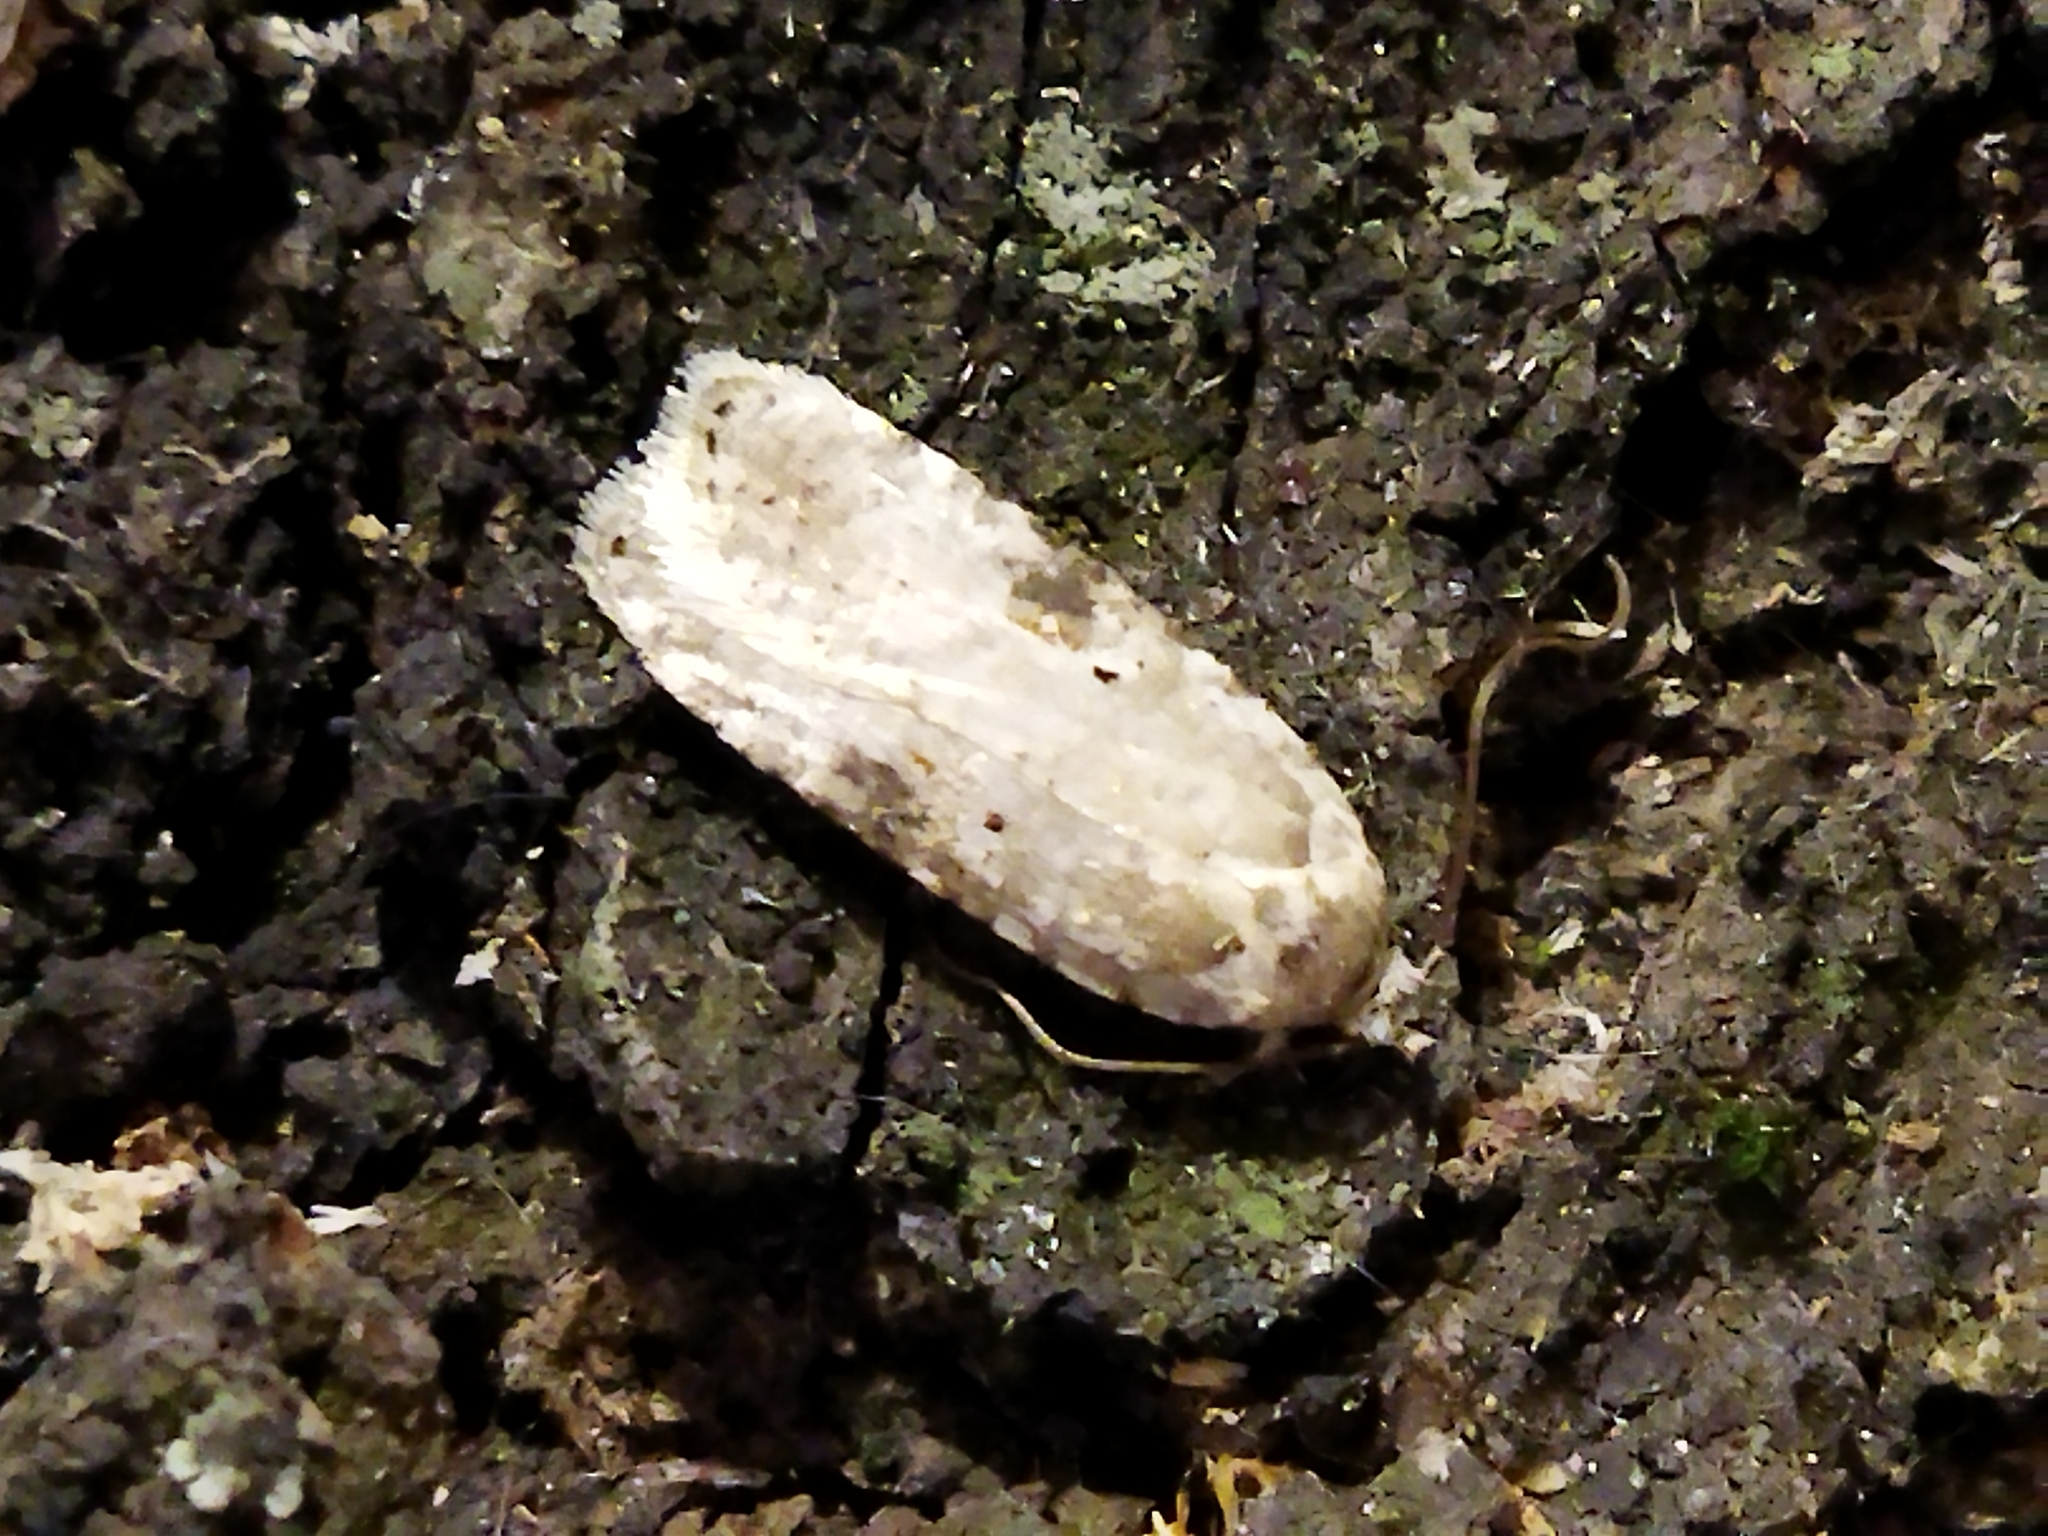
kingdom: Animalia
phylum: Arthropoda
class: Insecta
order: Lepidoptera
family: Depressariidae
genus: Agonopterix
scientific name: Agonopterix alstroemeriana
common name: Moth
